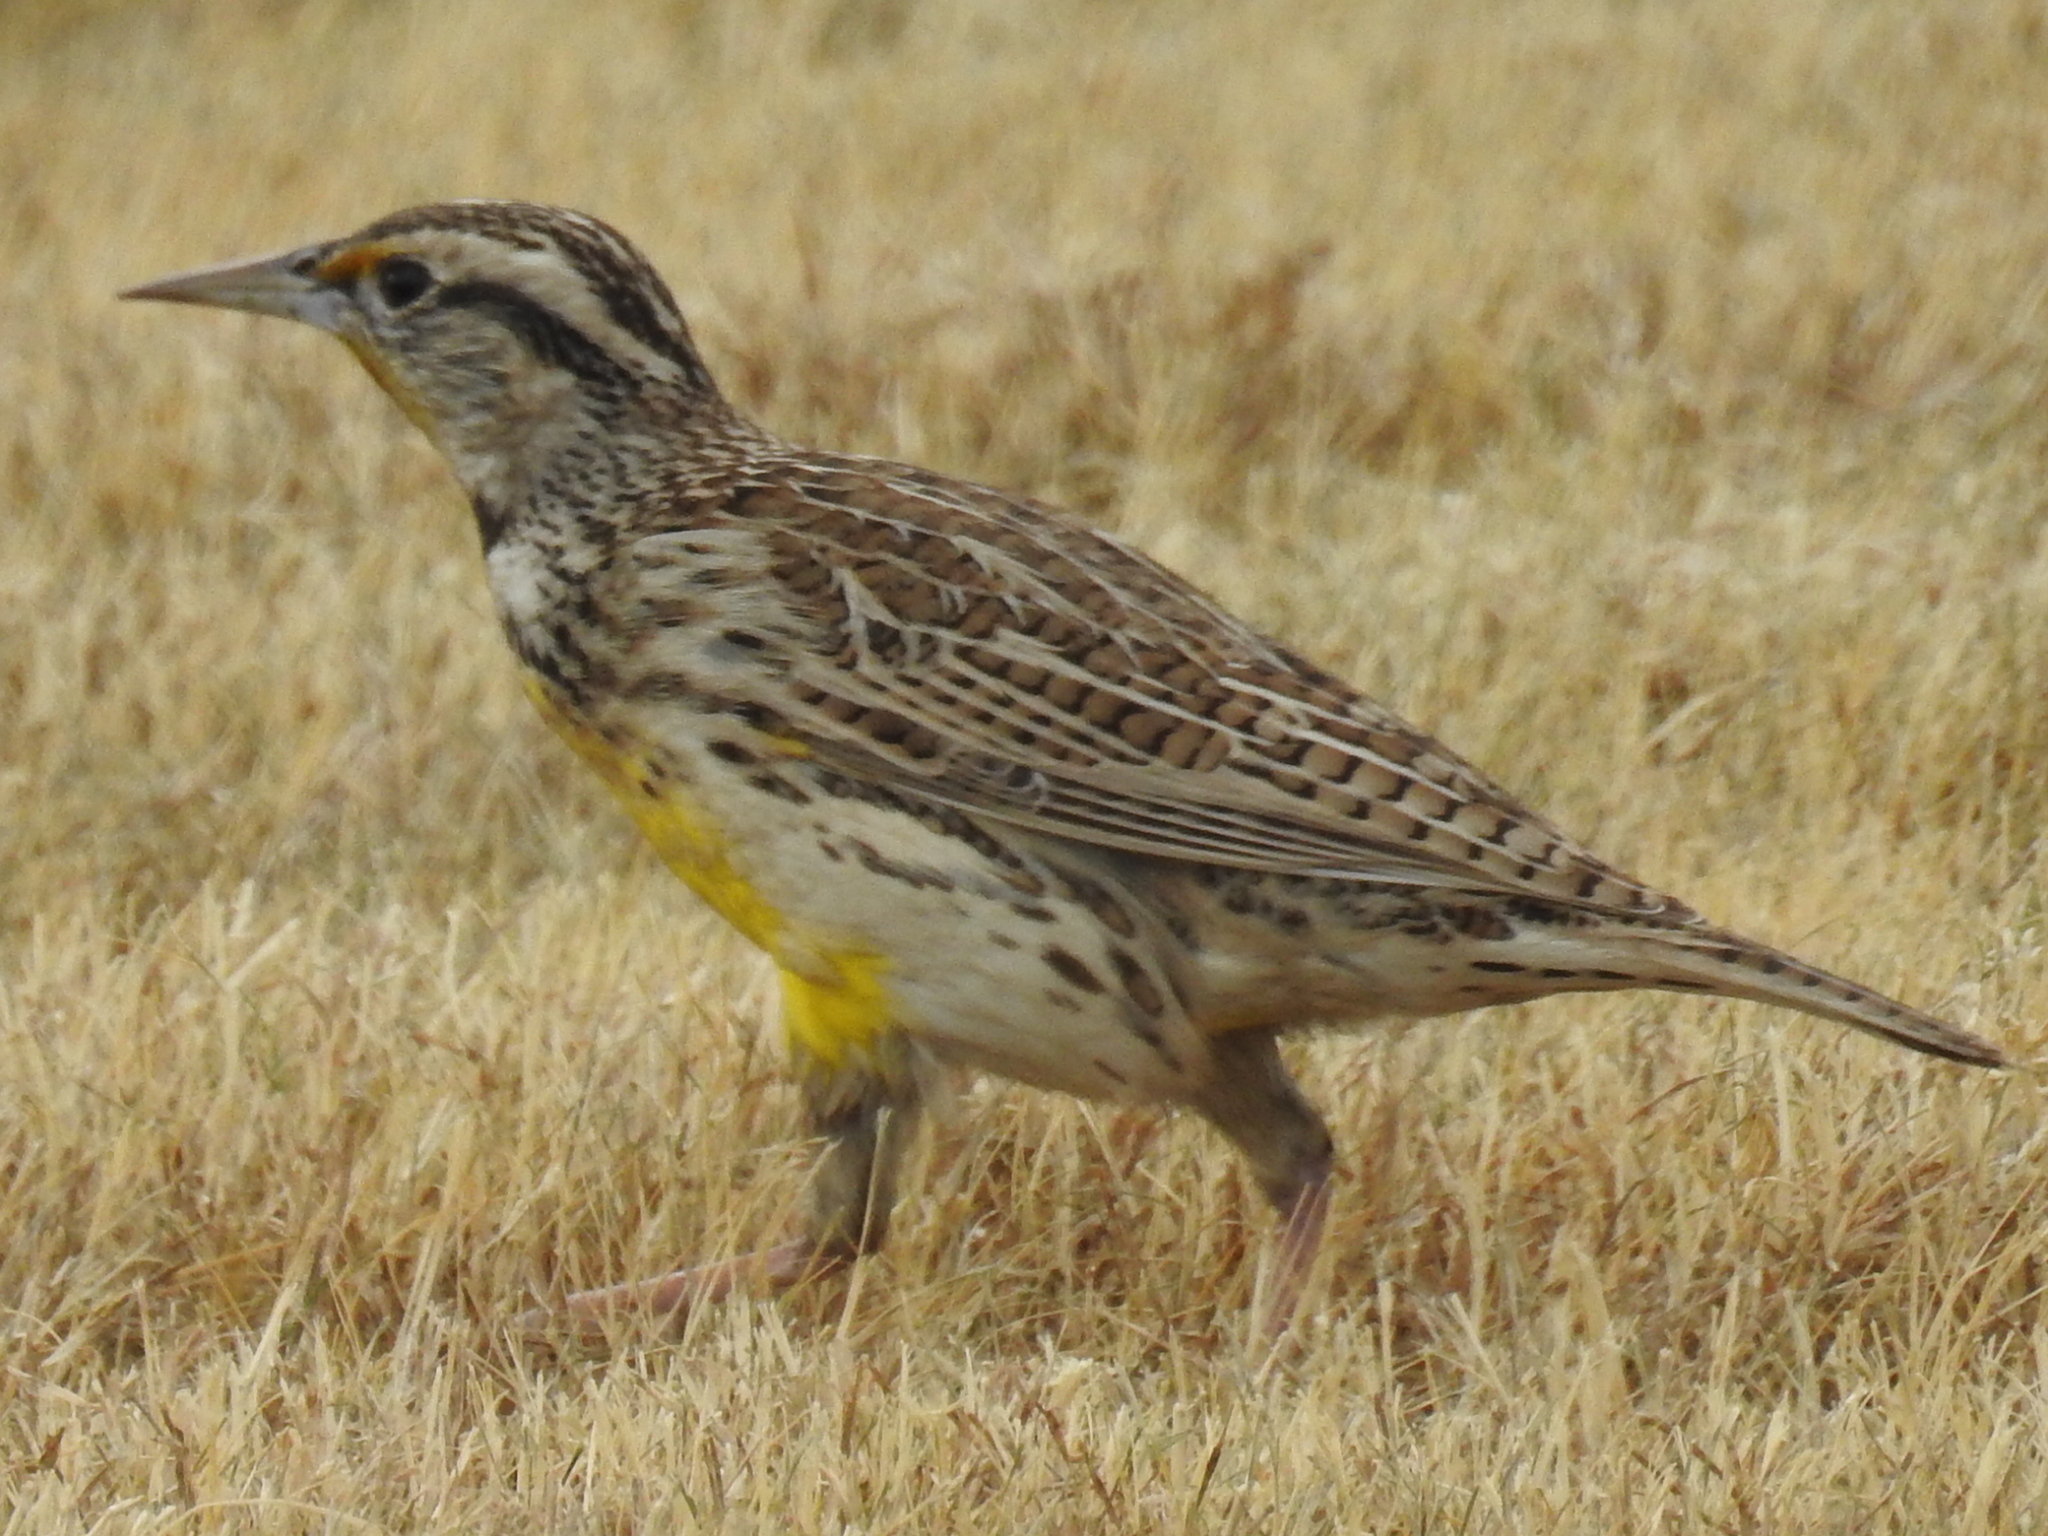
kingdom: Animalia
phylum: Chordata
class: Aves
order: Passeriformes
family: Icteridae
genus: Sturnella
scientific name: Sturnella
